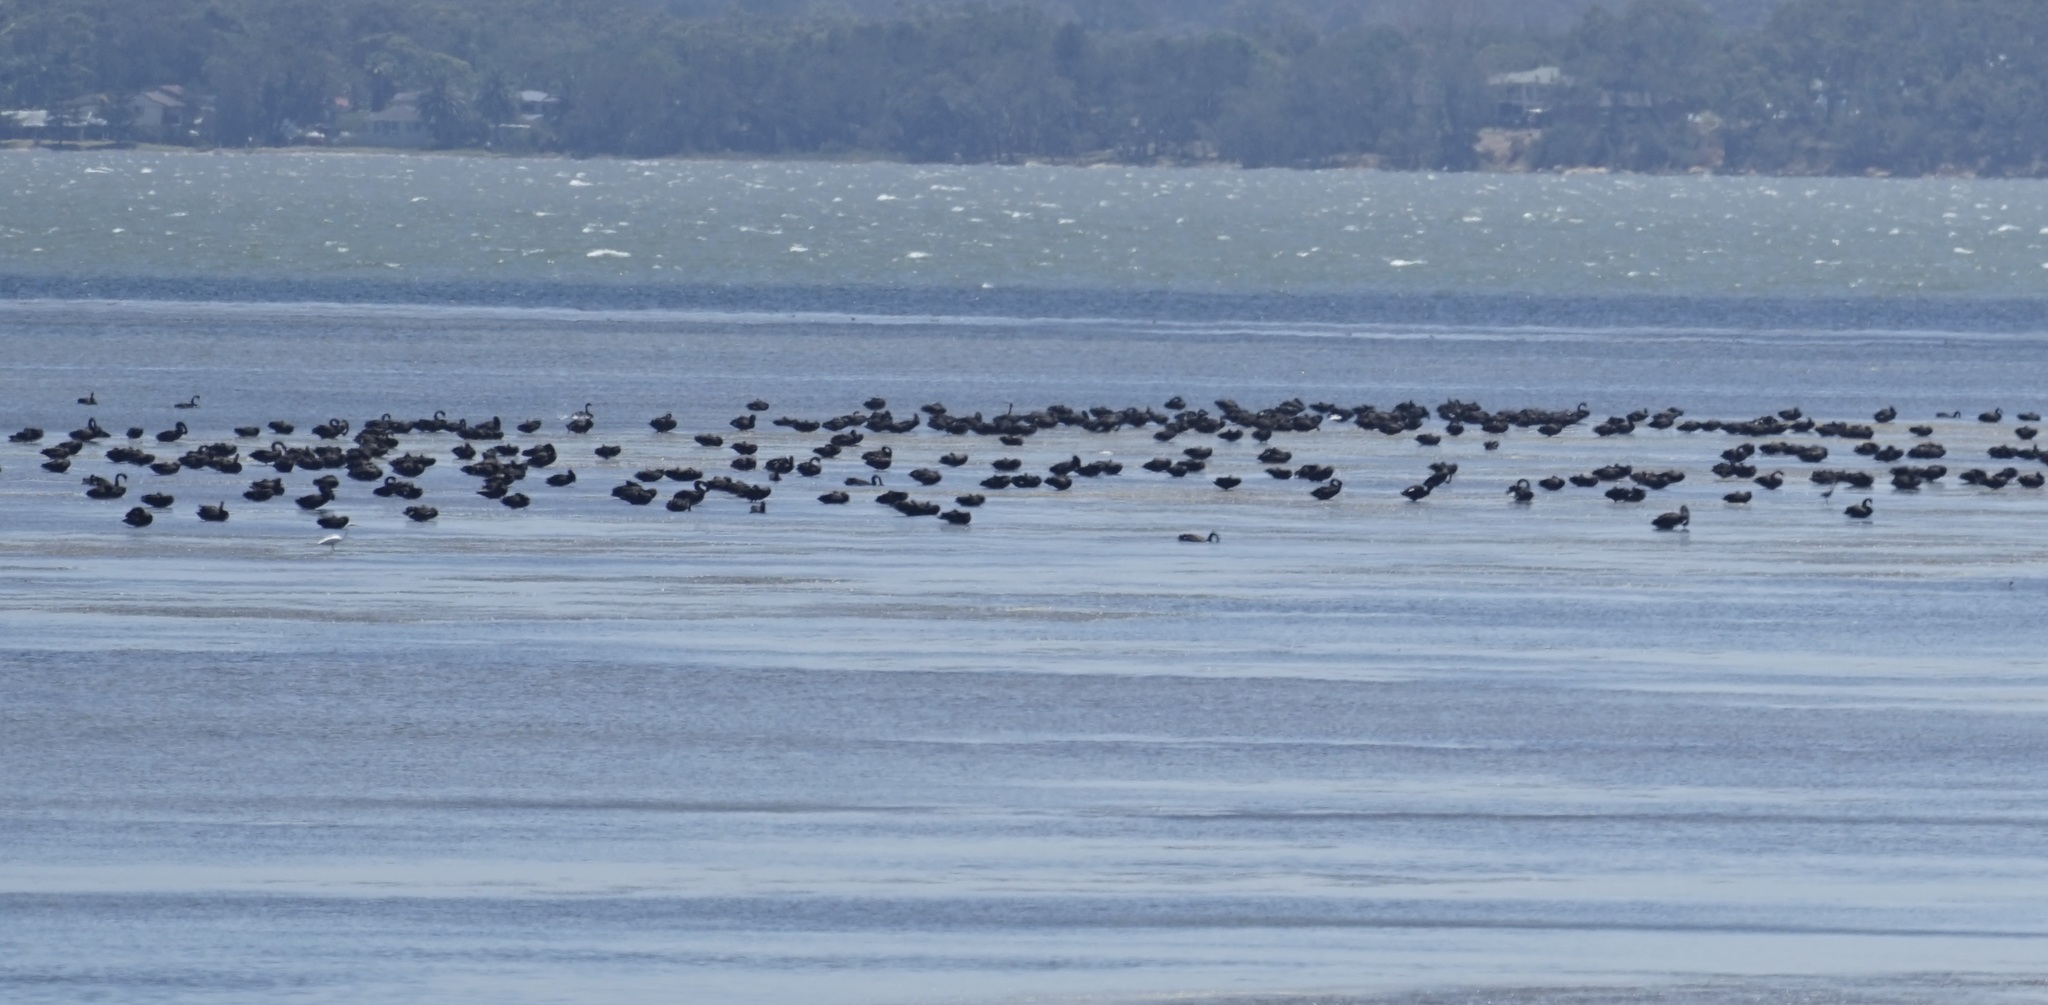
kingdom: Animalia
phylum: Chordata
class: Aves
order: Anseriformes
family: Anatidae
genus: Cygnus
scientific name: Cygnus atratus
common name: Black swan
